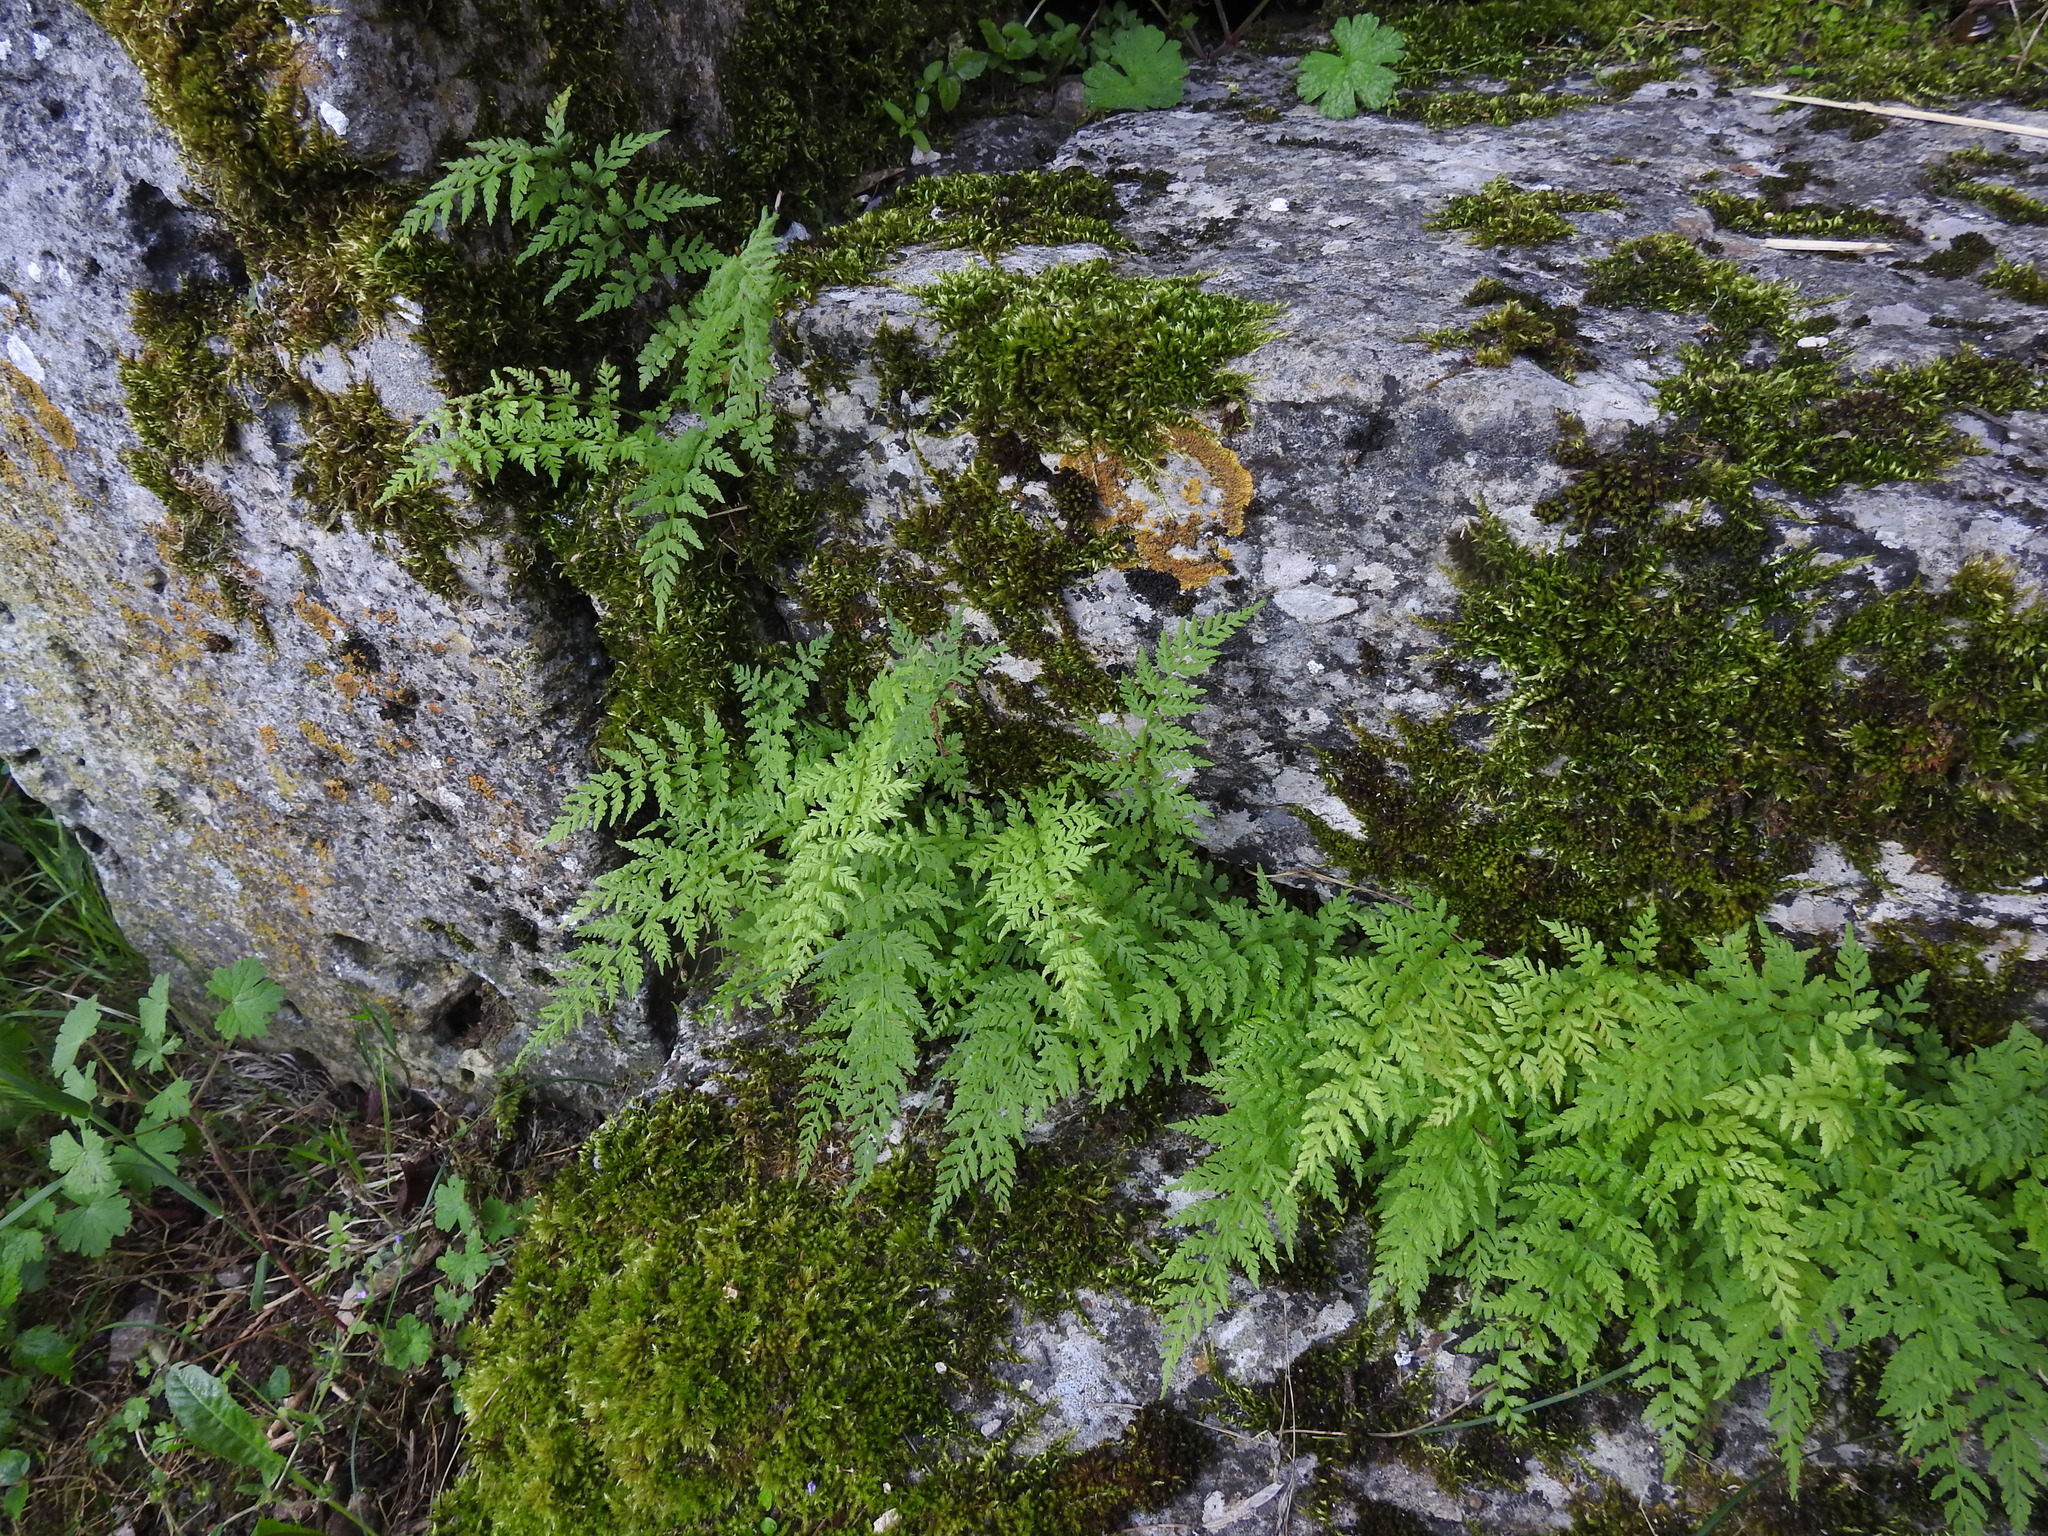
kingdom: Plantae
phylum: Tracheophyta
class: Polypodiopsida
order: Polypodiales
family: Cystopteridaceae
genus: Cystopteris
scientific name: Cystopteris fragilis
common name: Brittle bladder fern
